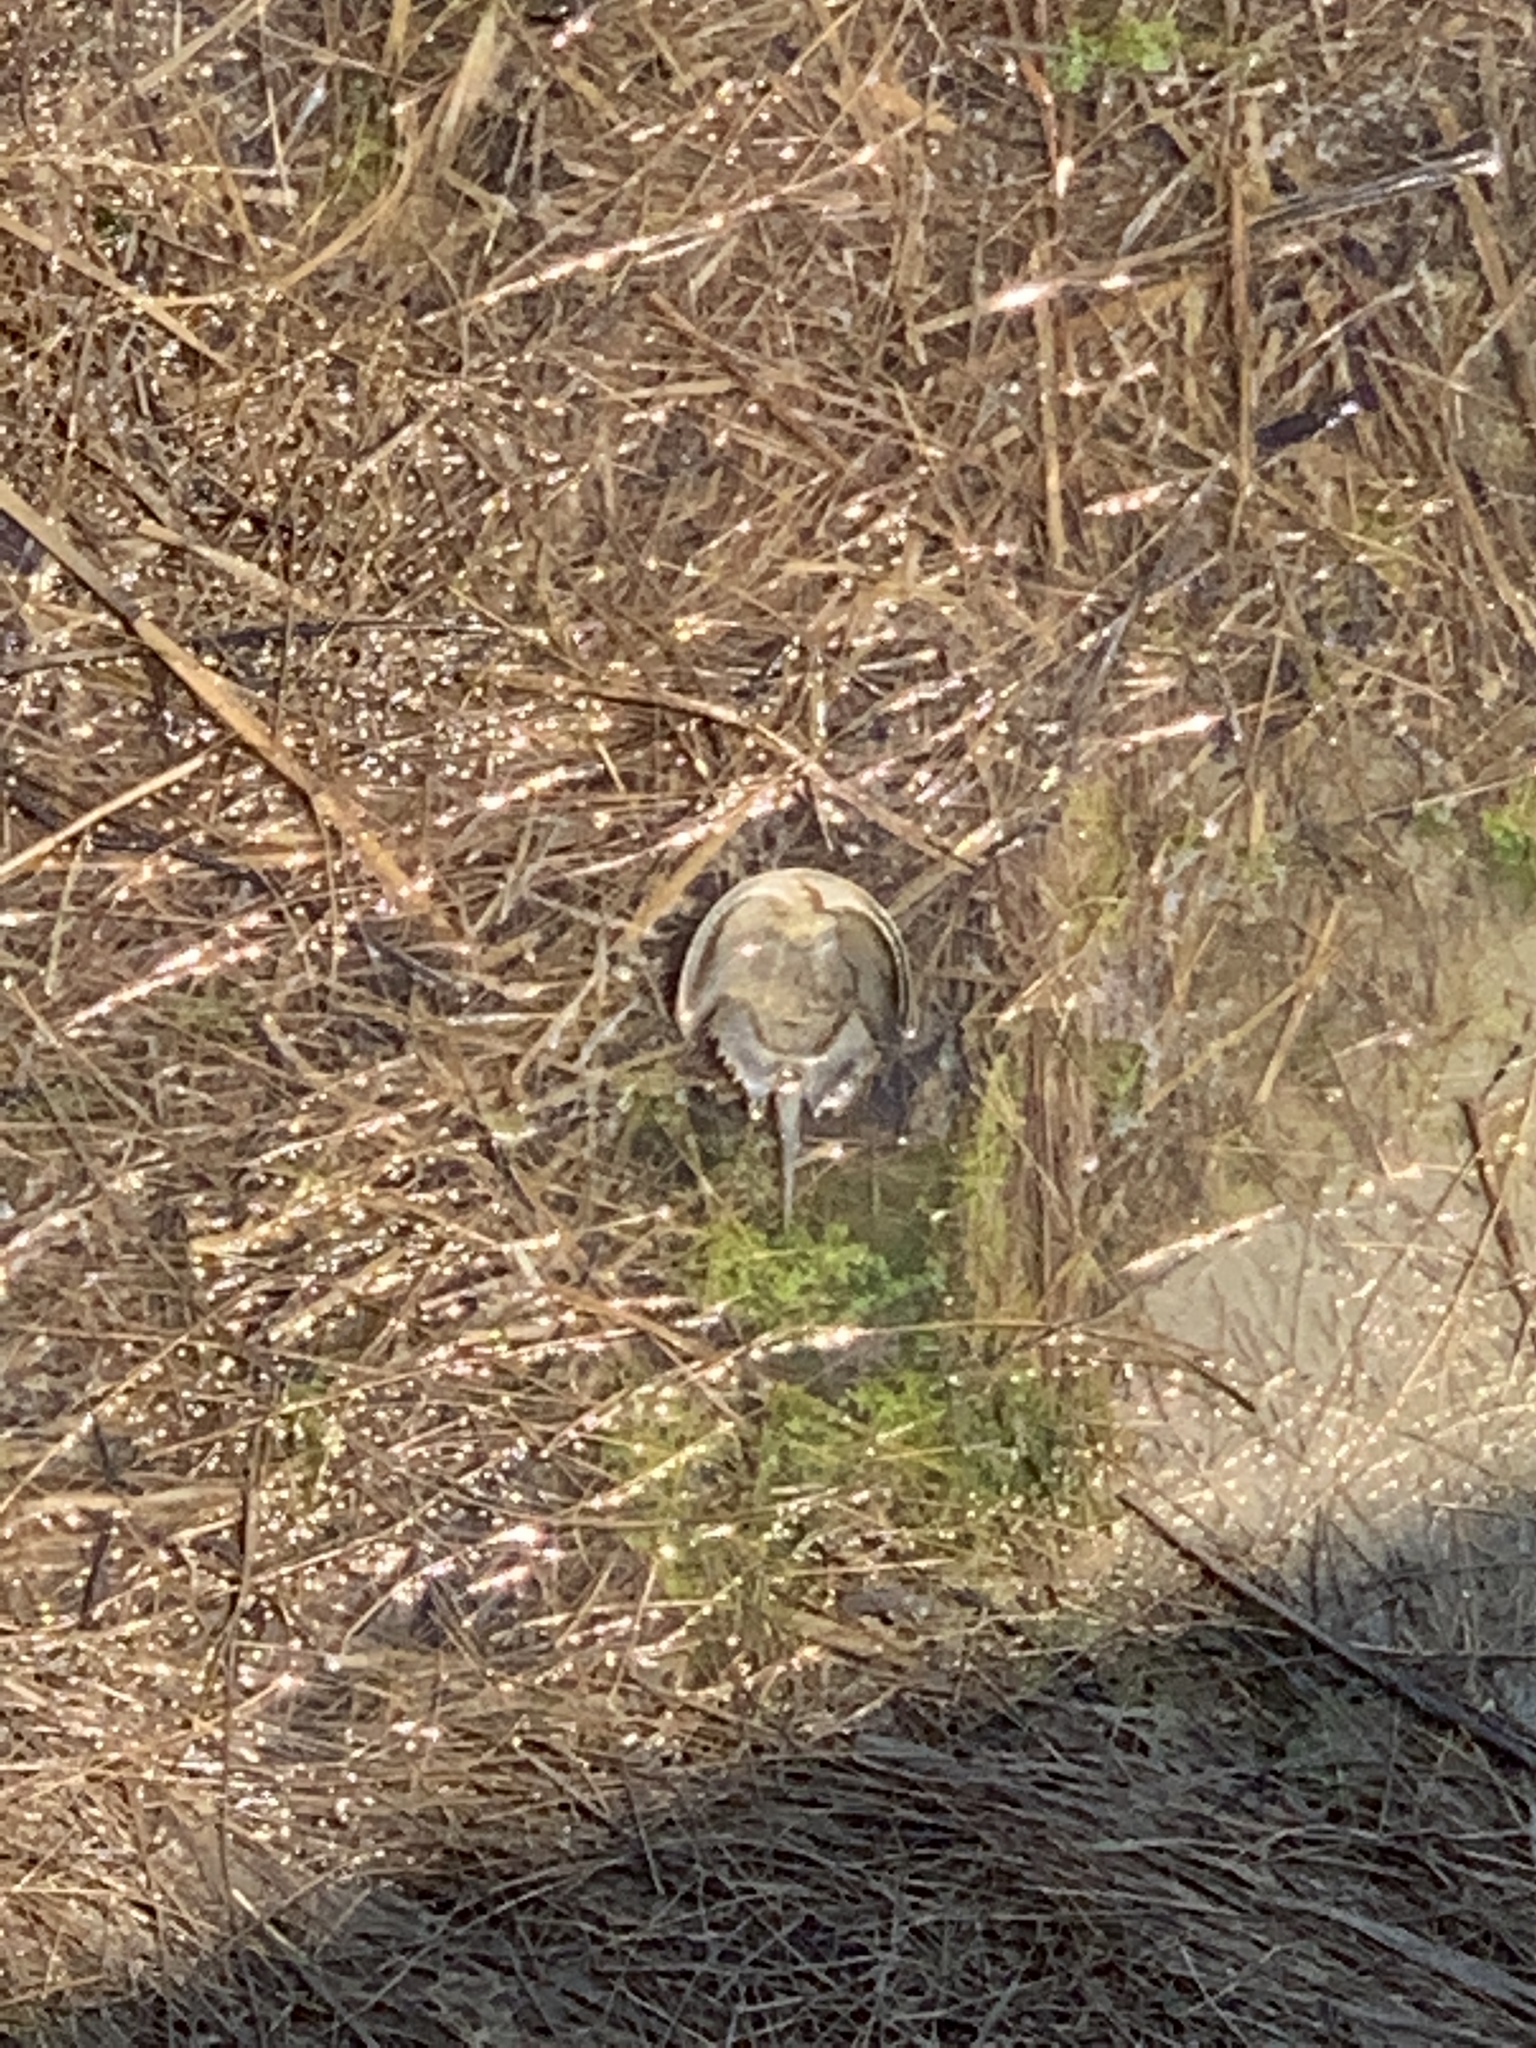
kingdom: Animalia
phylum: Arthropoda
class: Merostomata
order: Xiphosurida
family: Limulidae
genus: Limulus
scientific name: Limulus polyphemus
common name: Horseshoe crab
